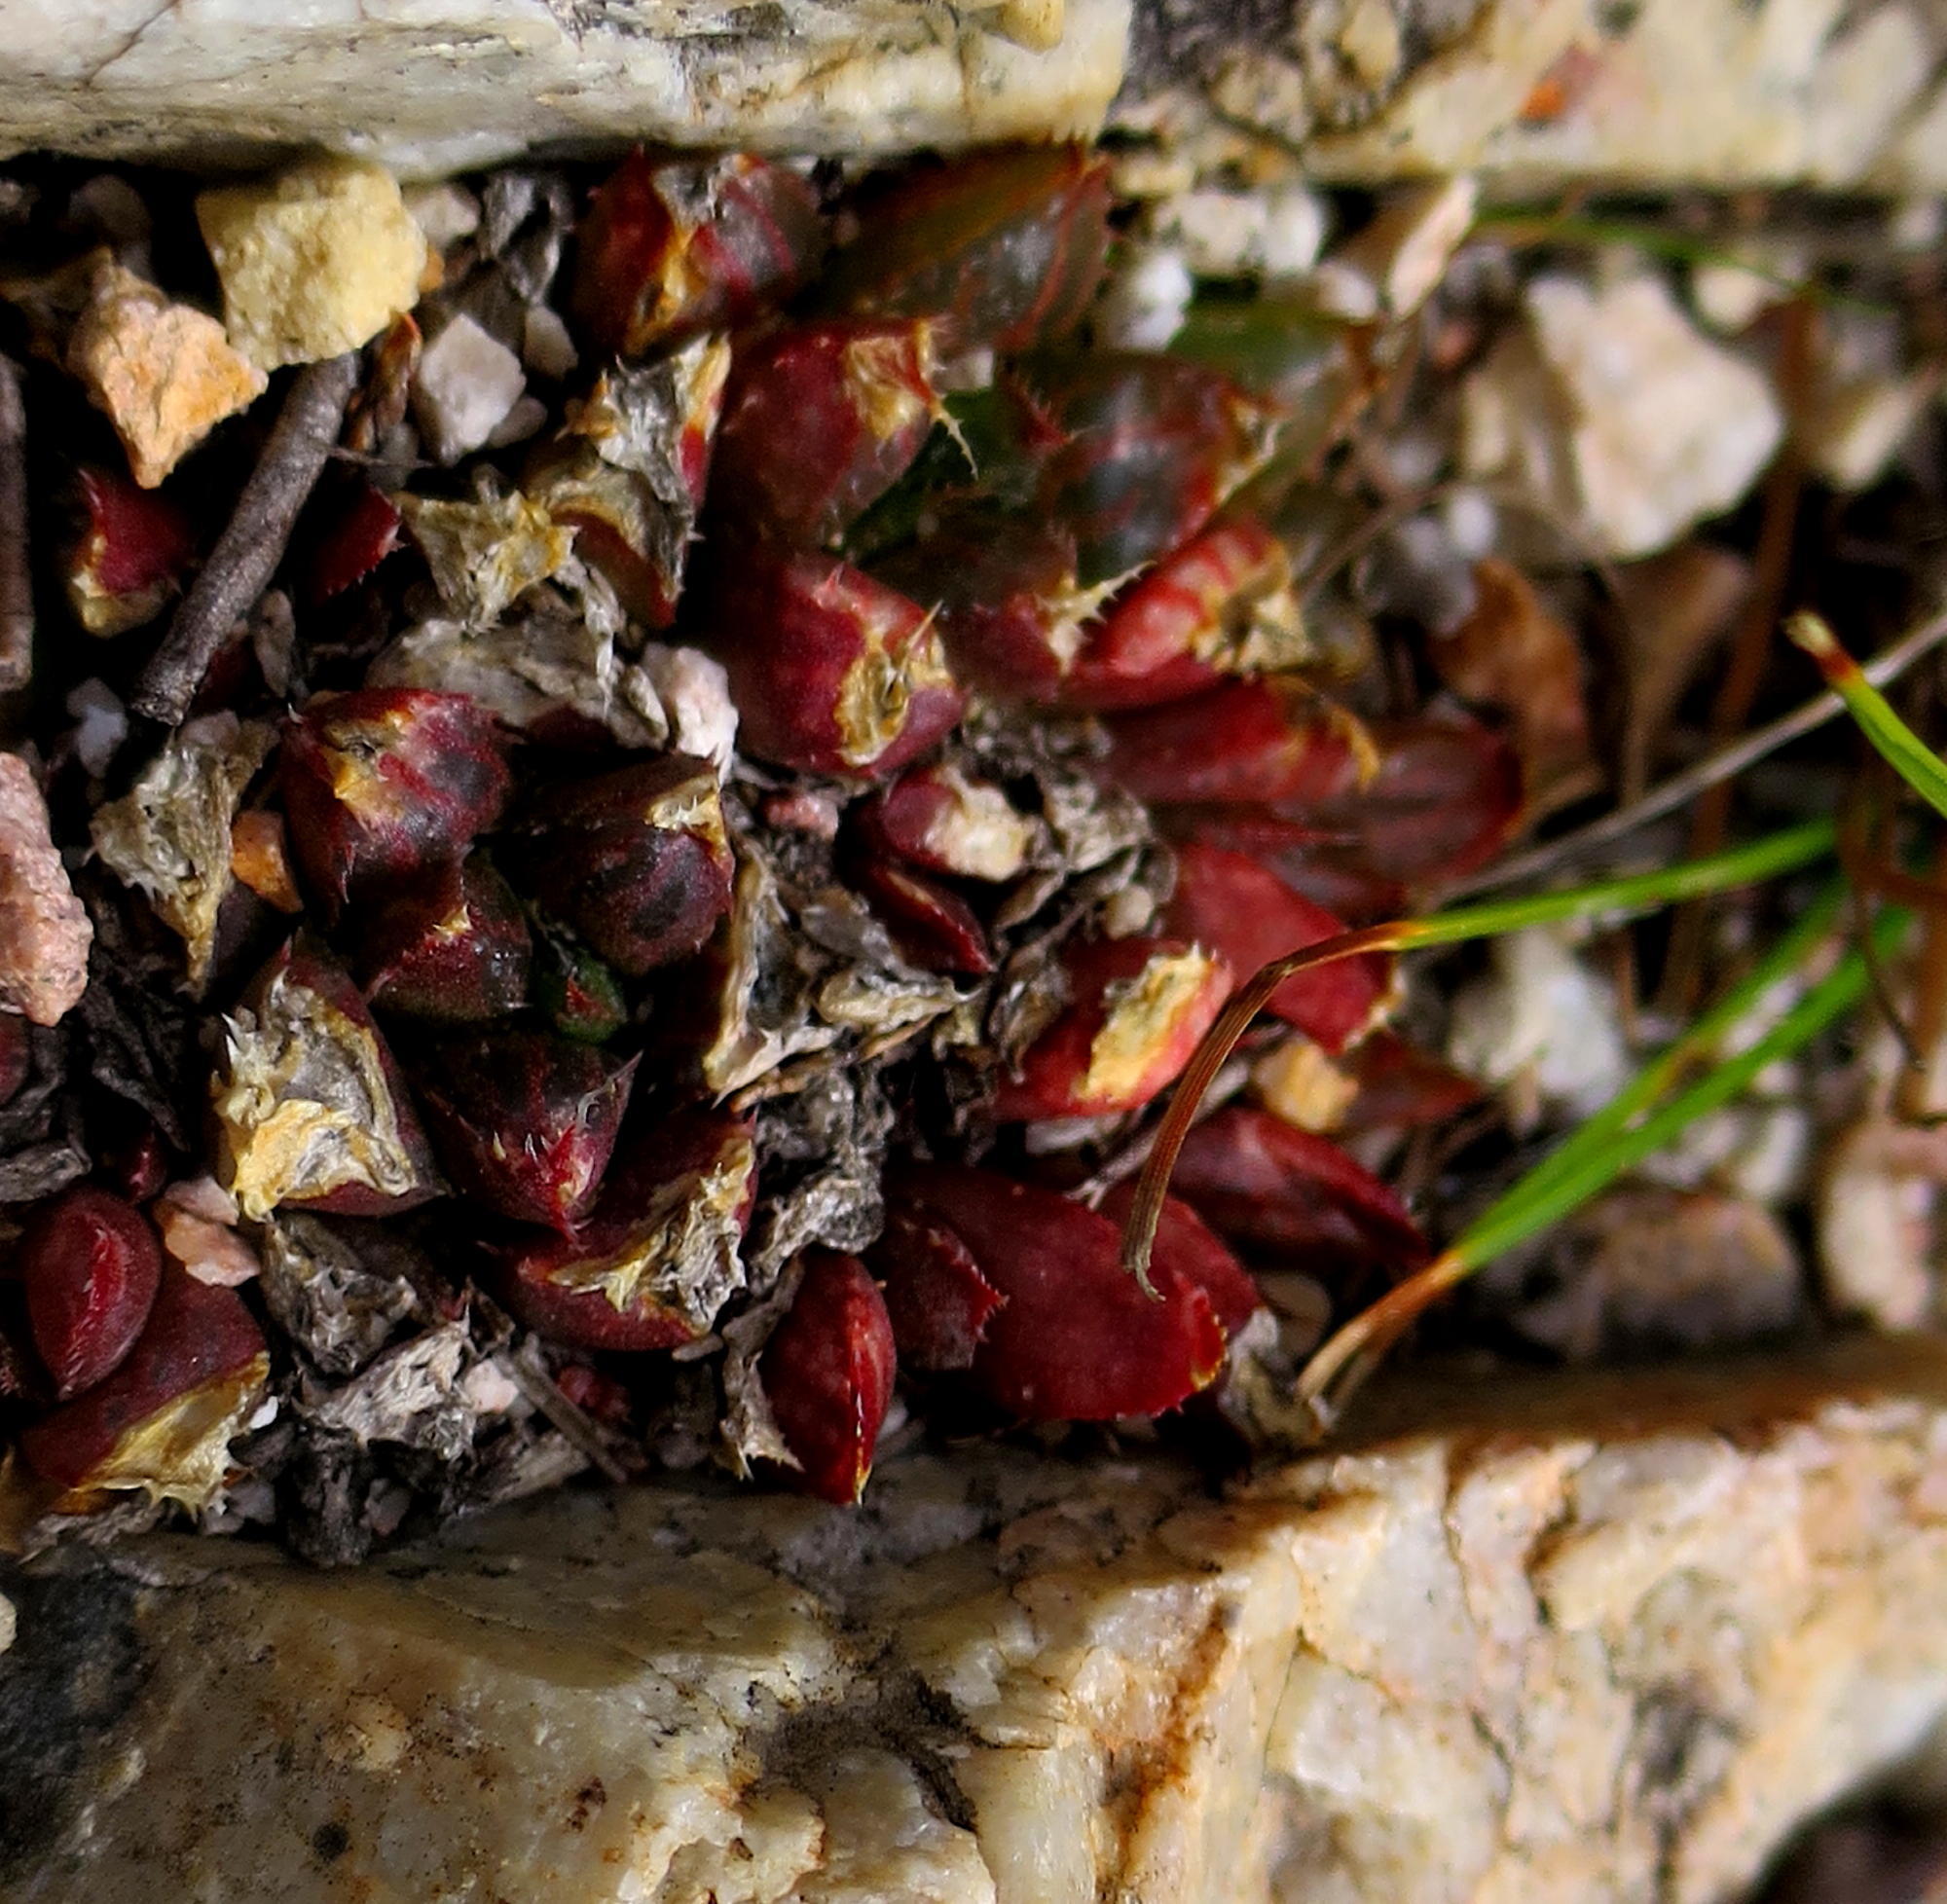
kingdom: Plantae
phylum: Tracheophyta
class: Liliopsida
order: Asparagales
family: Asphodelaceae
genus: Haworthia
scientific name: Haworthia mirabilis
